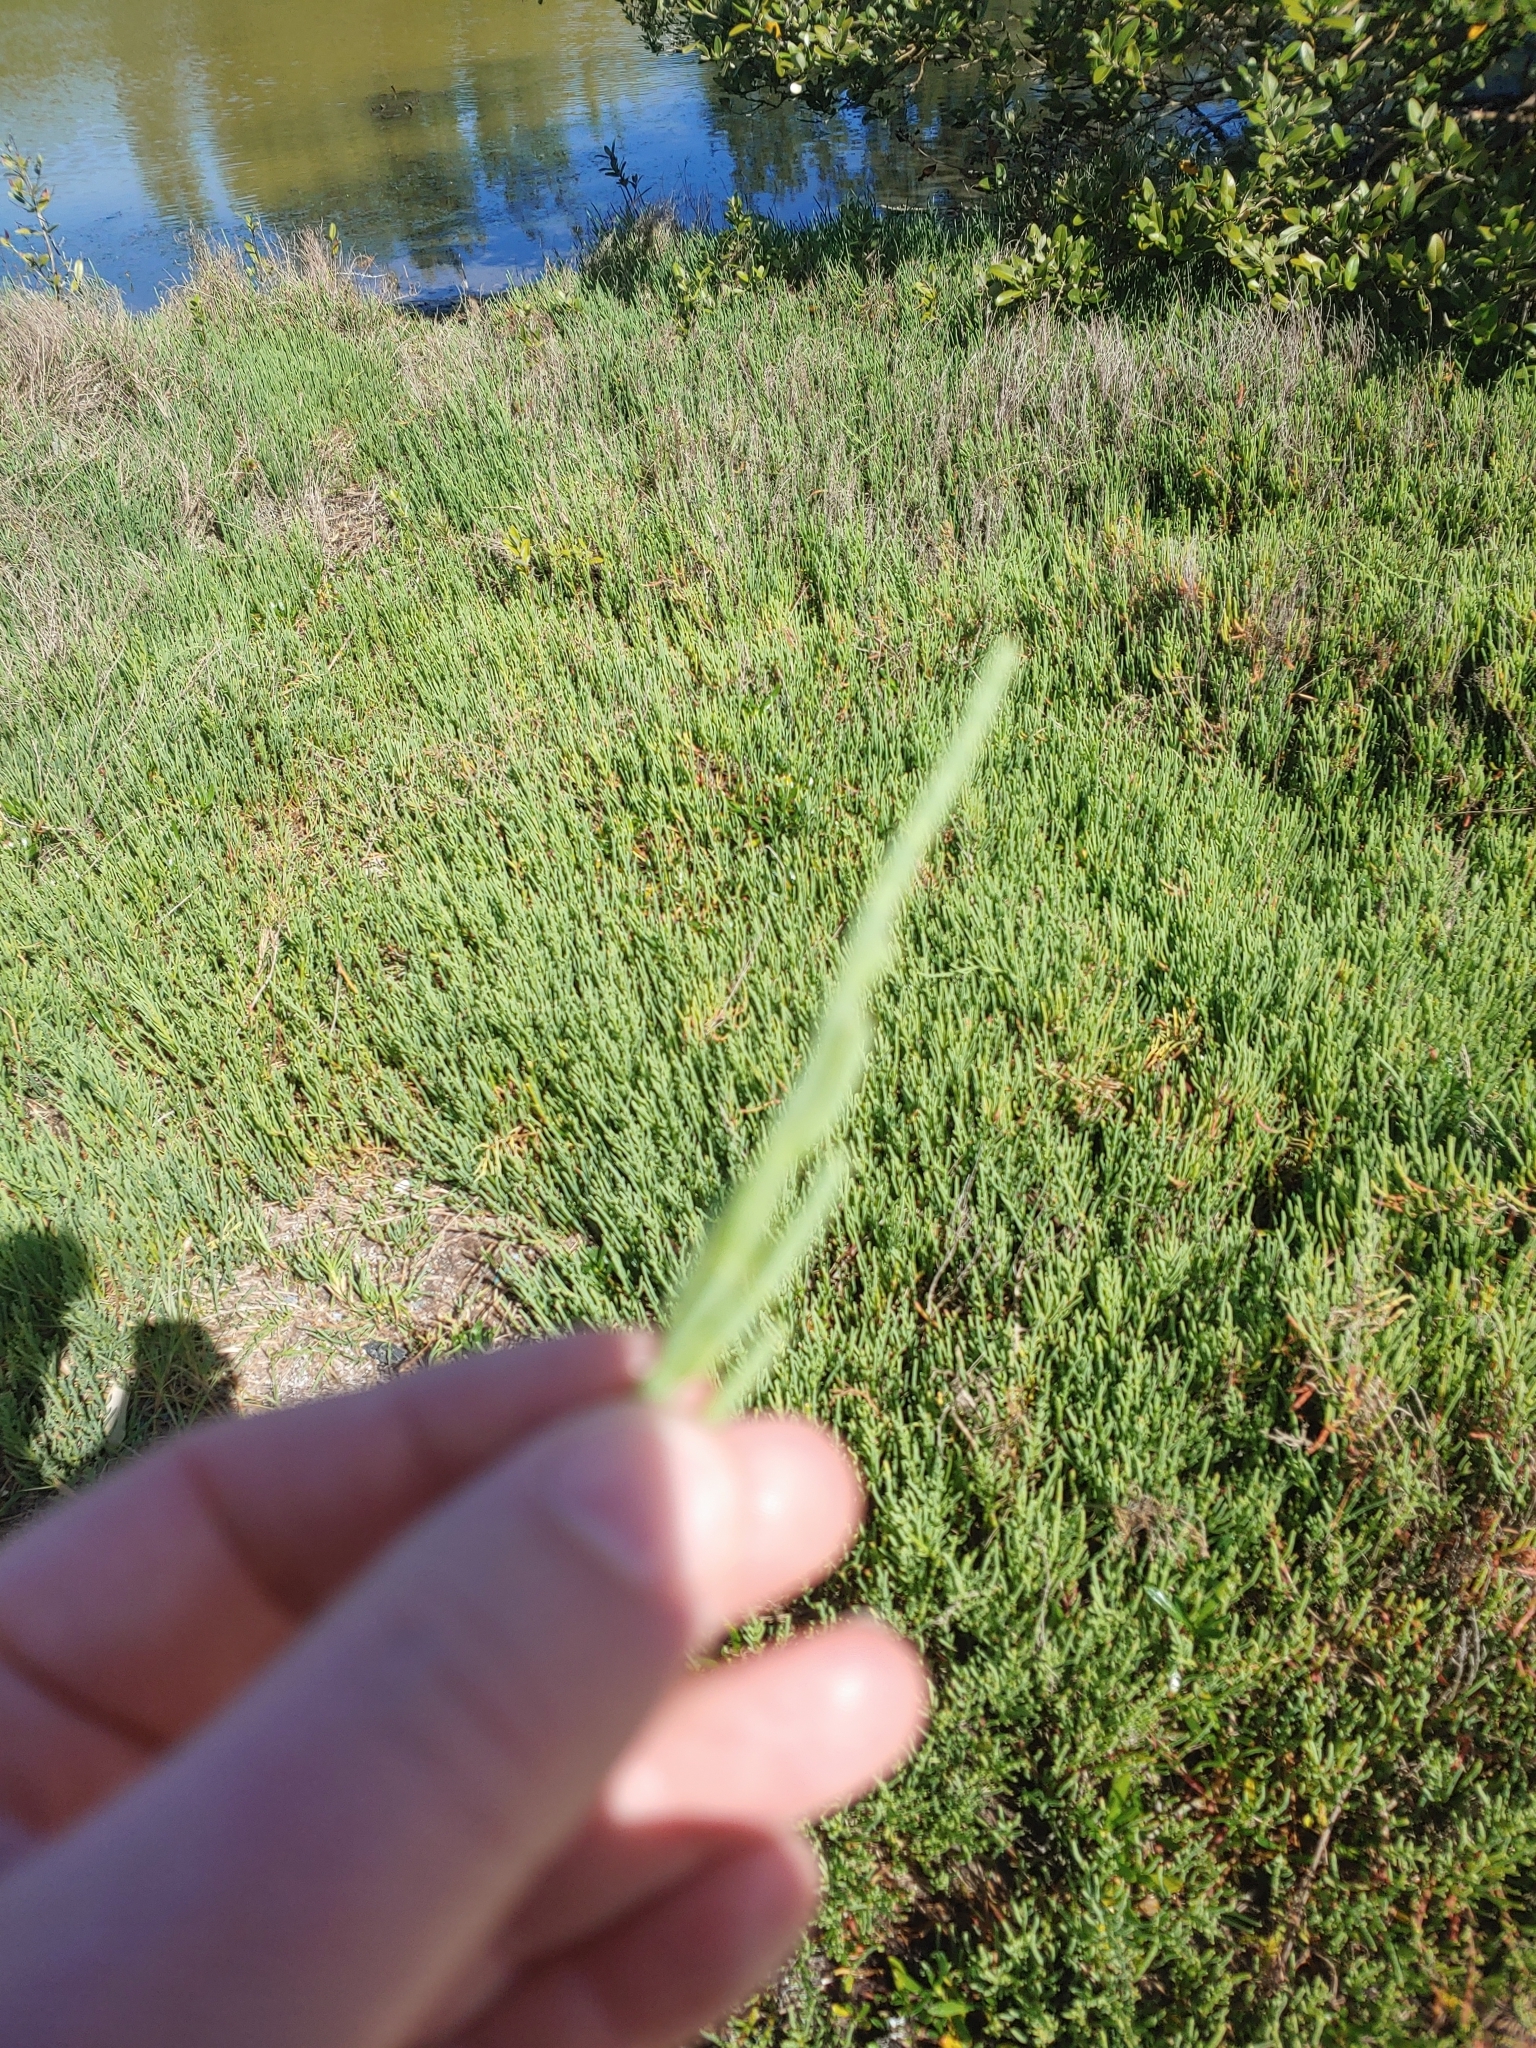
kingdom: Plantae
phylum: Tracheophyta
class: Magnoliopsida
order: Caryophyllales
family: Amaranthaceae
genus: Salicornia
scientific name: Salicornia perennis
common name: Chicken claws
